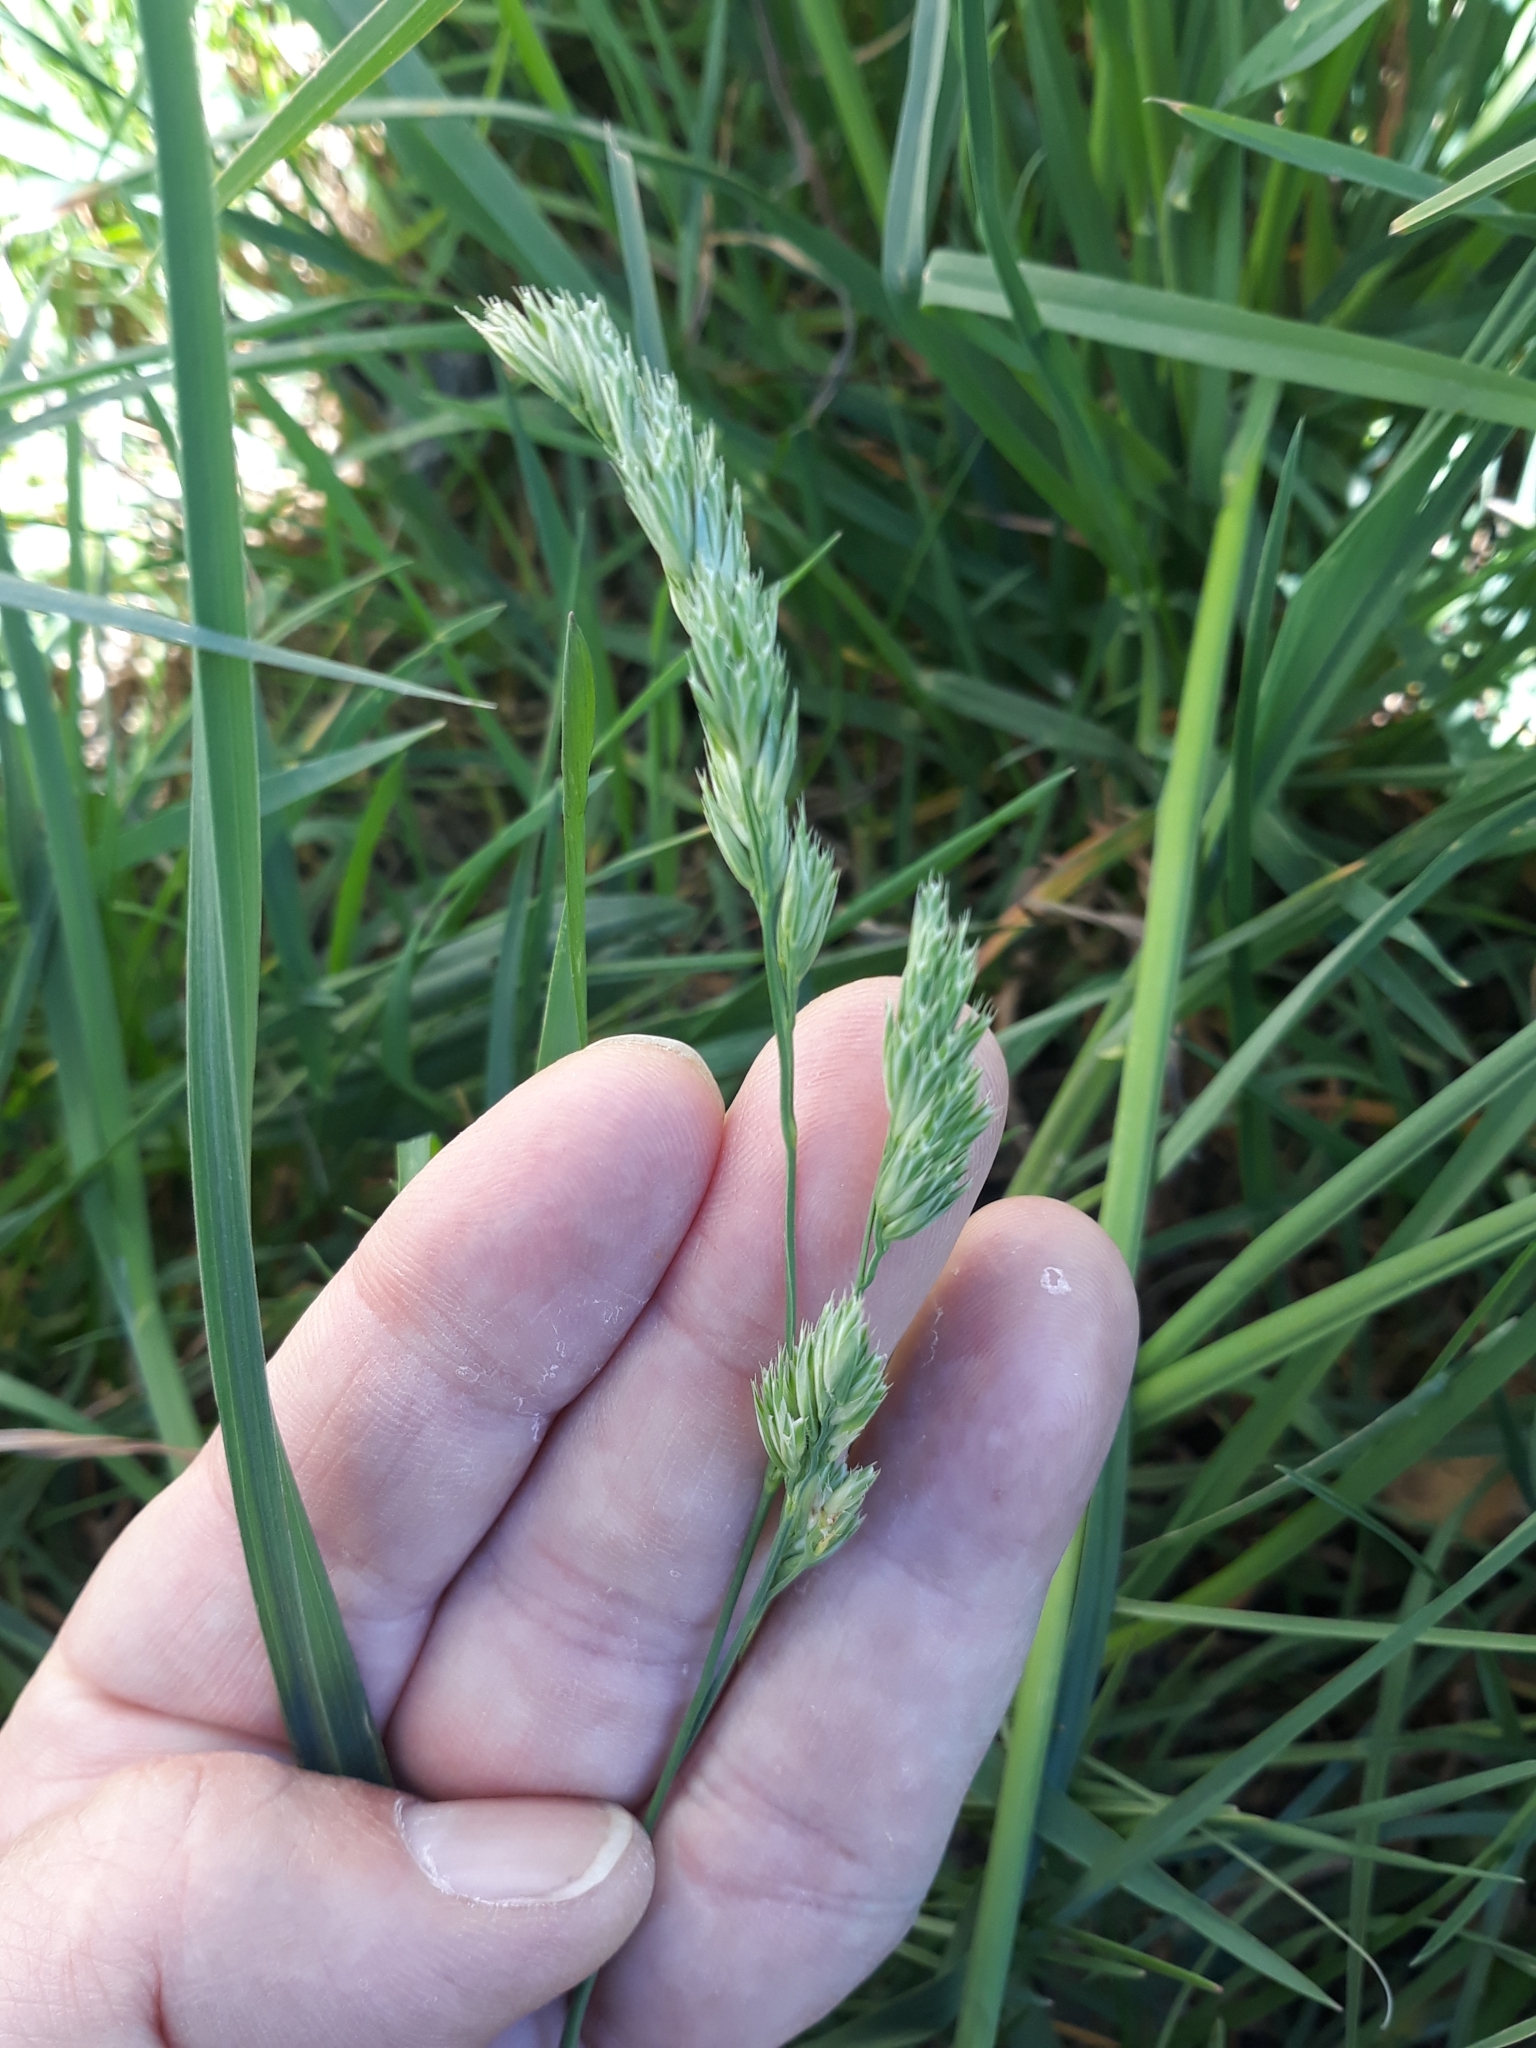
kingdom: Plantae
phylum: Tracheophyta
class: Liliopsida
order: Poales
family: Poaceae
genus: Dactylis
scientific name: Dactylis glomerata
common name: Orchardgrass
